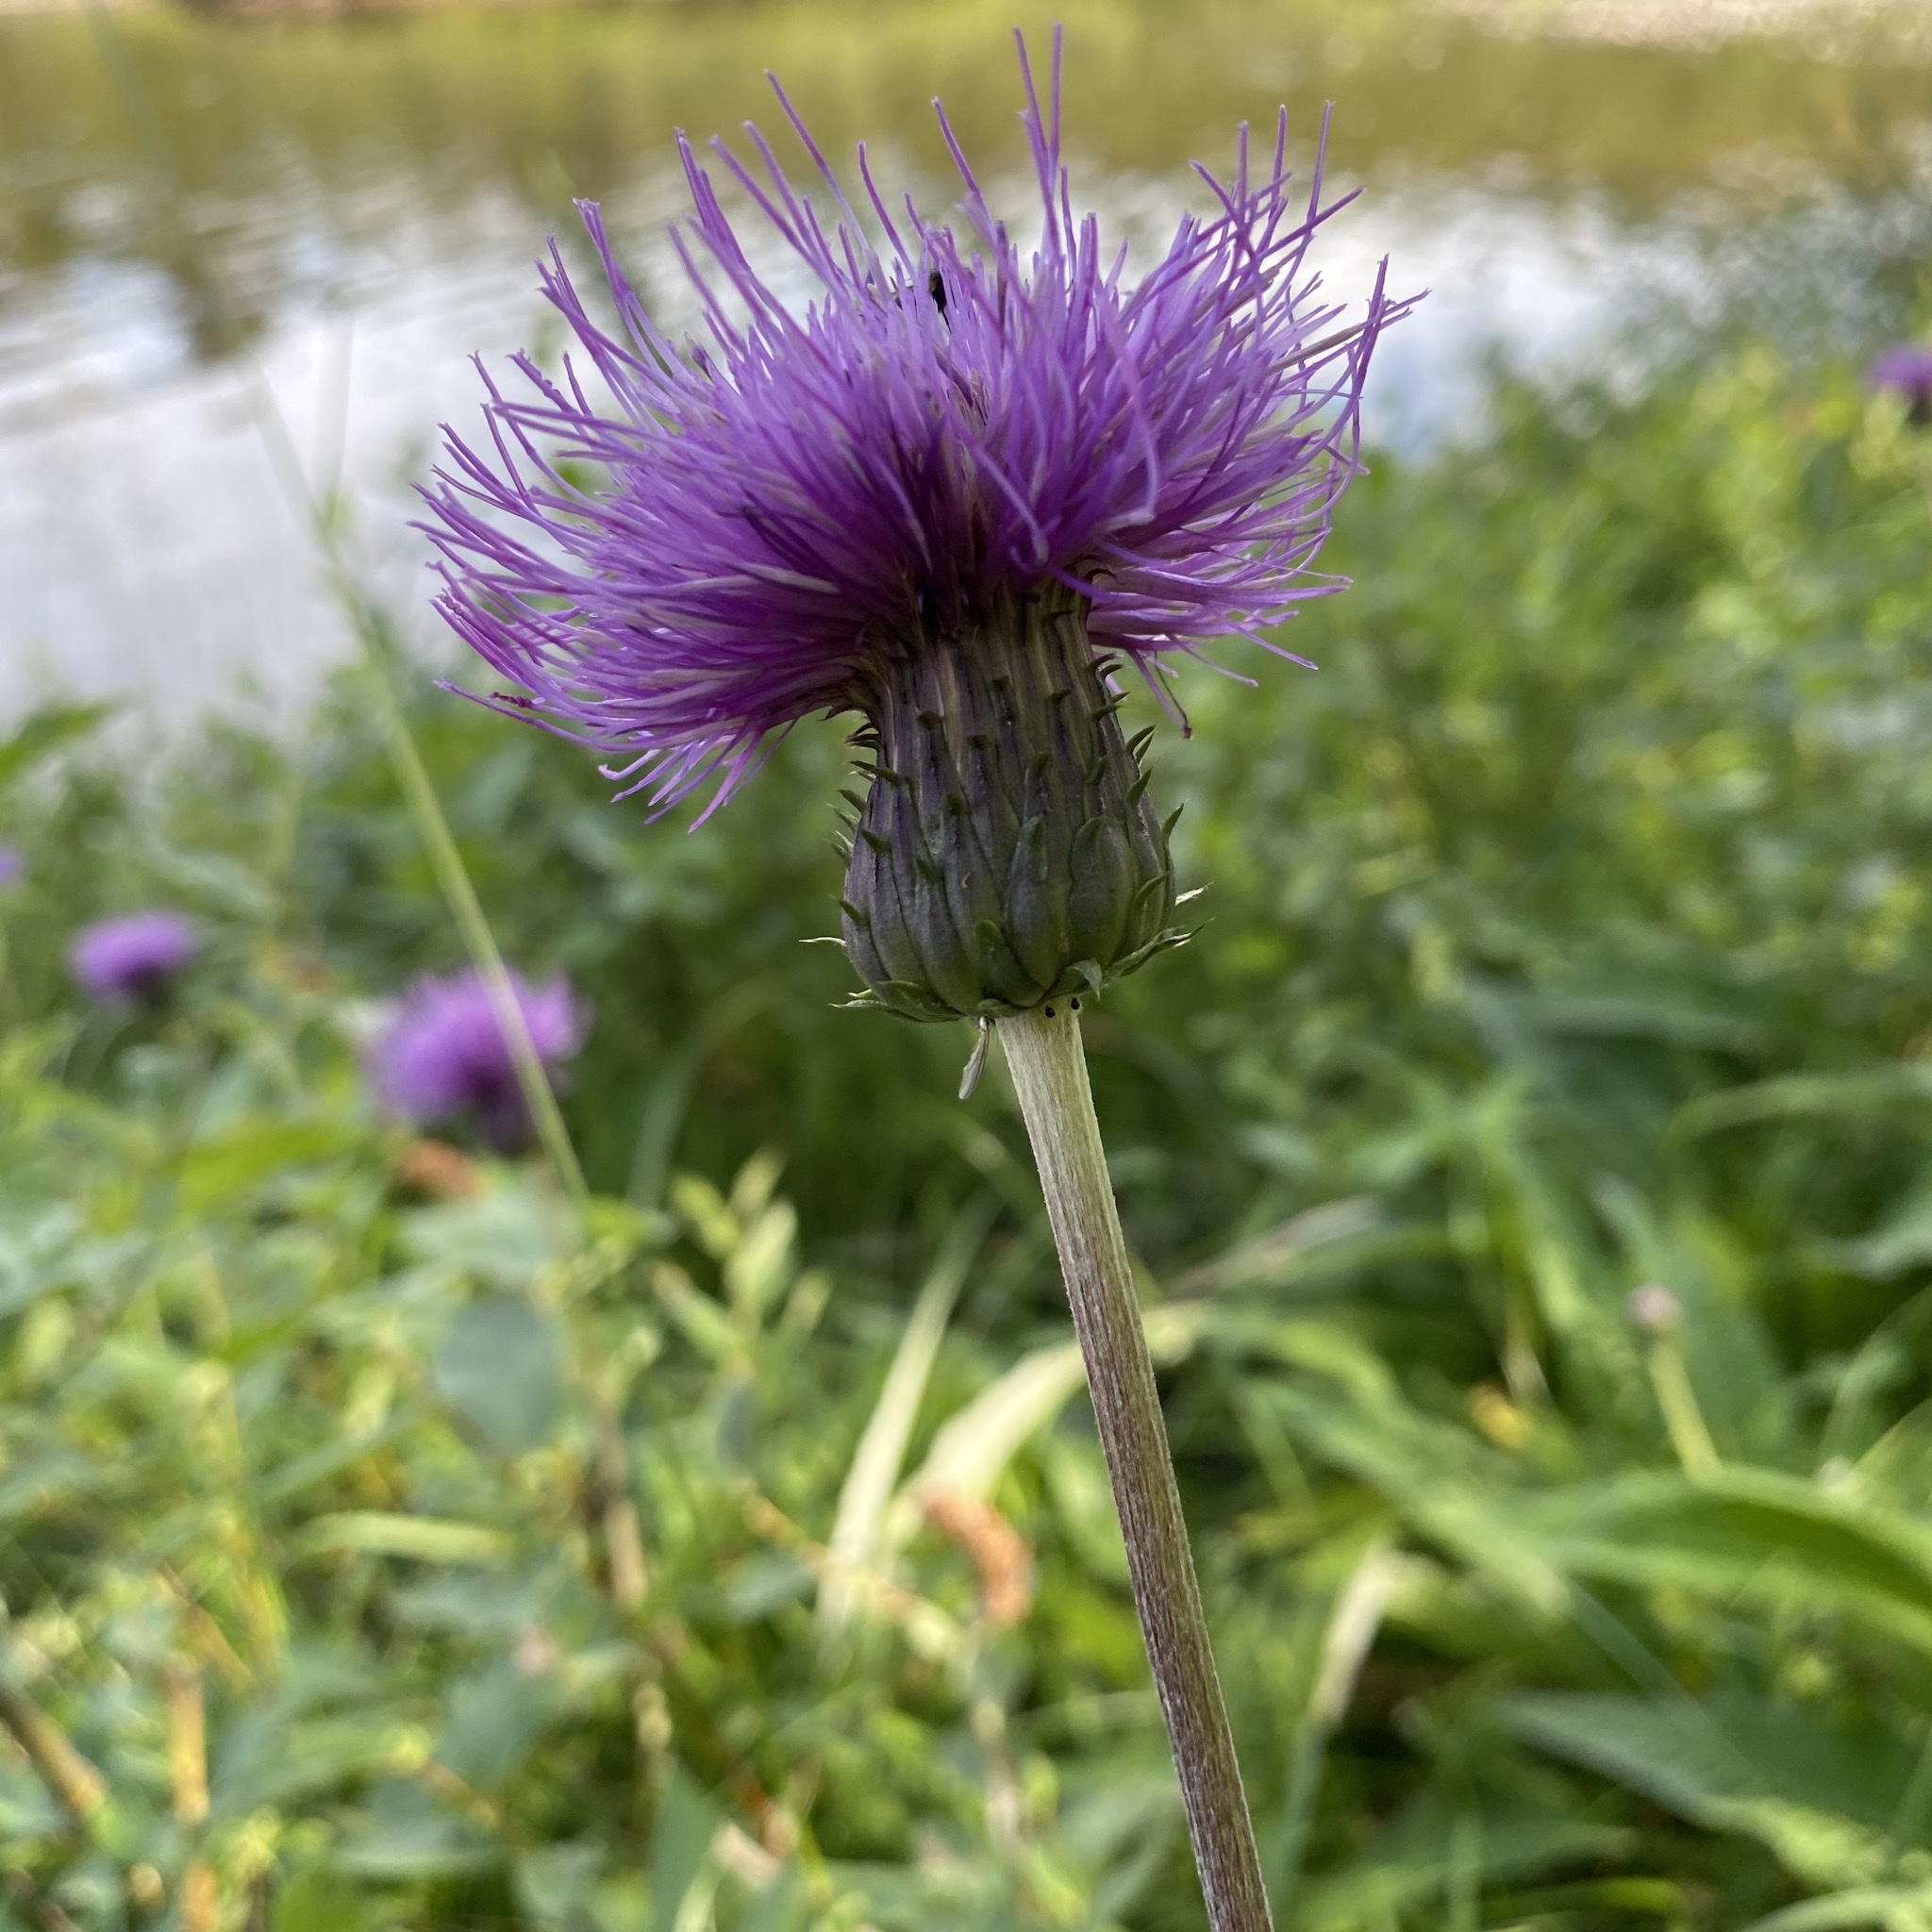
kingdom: Plantae
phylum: Tracheophyta
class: Magnoliopsida
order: Asterales
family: Asteraceae
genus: Cirsium
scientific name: Cirsium heterophyllum
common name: Melancholy thistle
